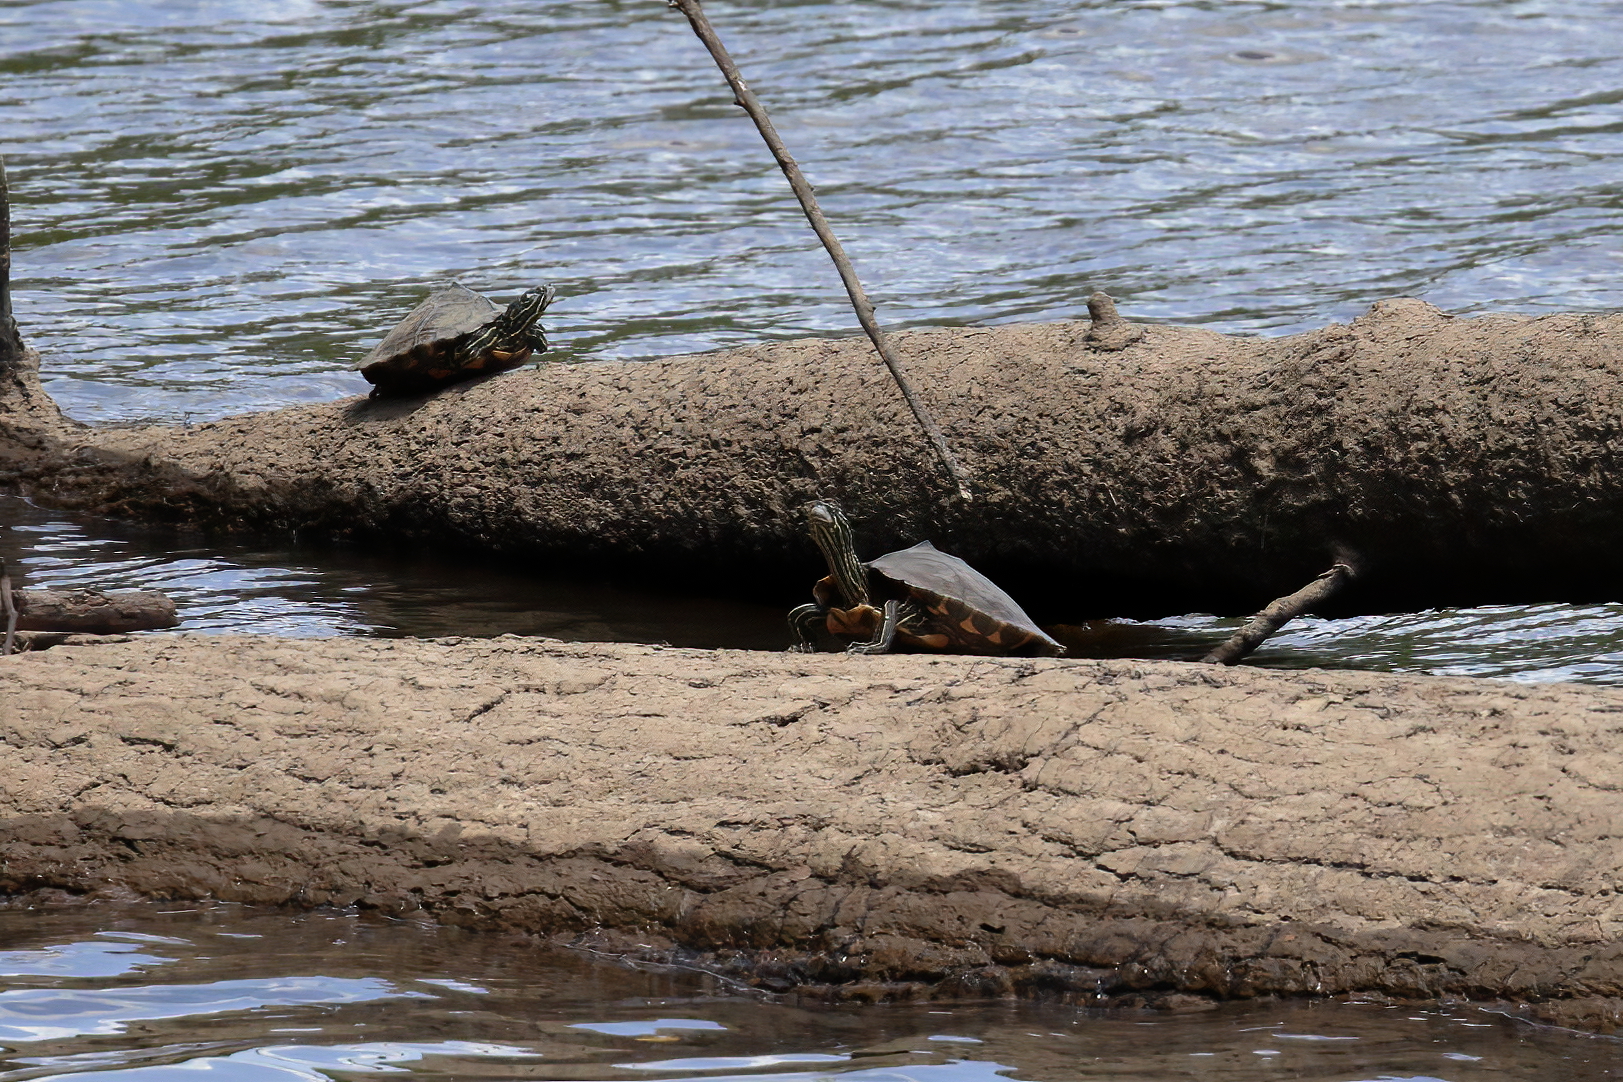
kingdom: Animalia
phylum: Chordata
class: Testudines
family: Emydidae
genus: Graptemys
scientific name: Graptemys oculifera
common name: Ringed map turtle
